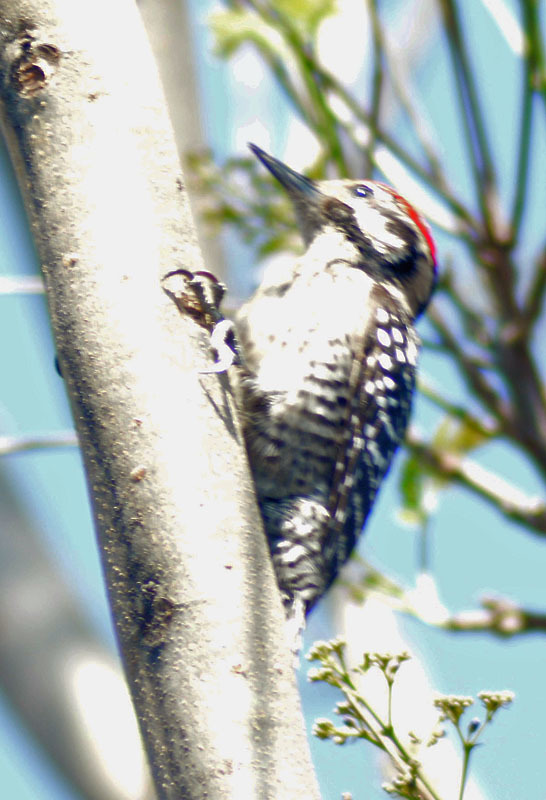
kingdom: Animalia
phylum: Chordata
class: Aves
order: Piciformes
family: Picidae
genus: Dryobates
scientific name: Dryobates scalaris
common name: Ladder-backed woodpecker
